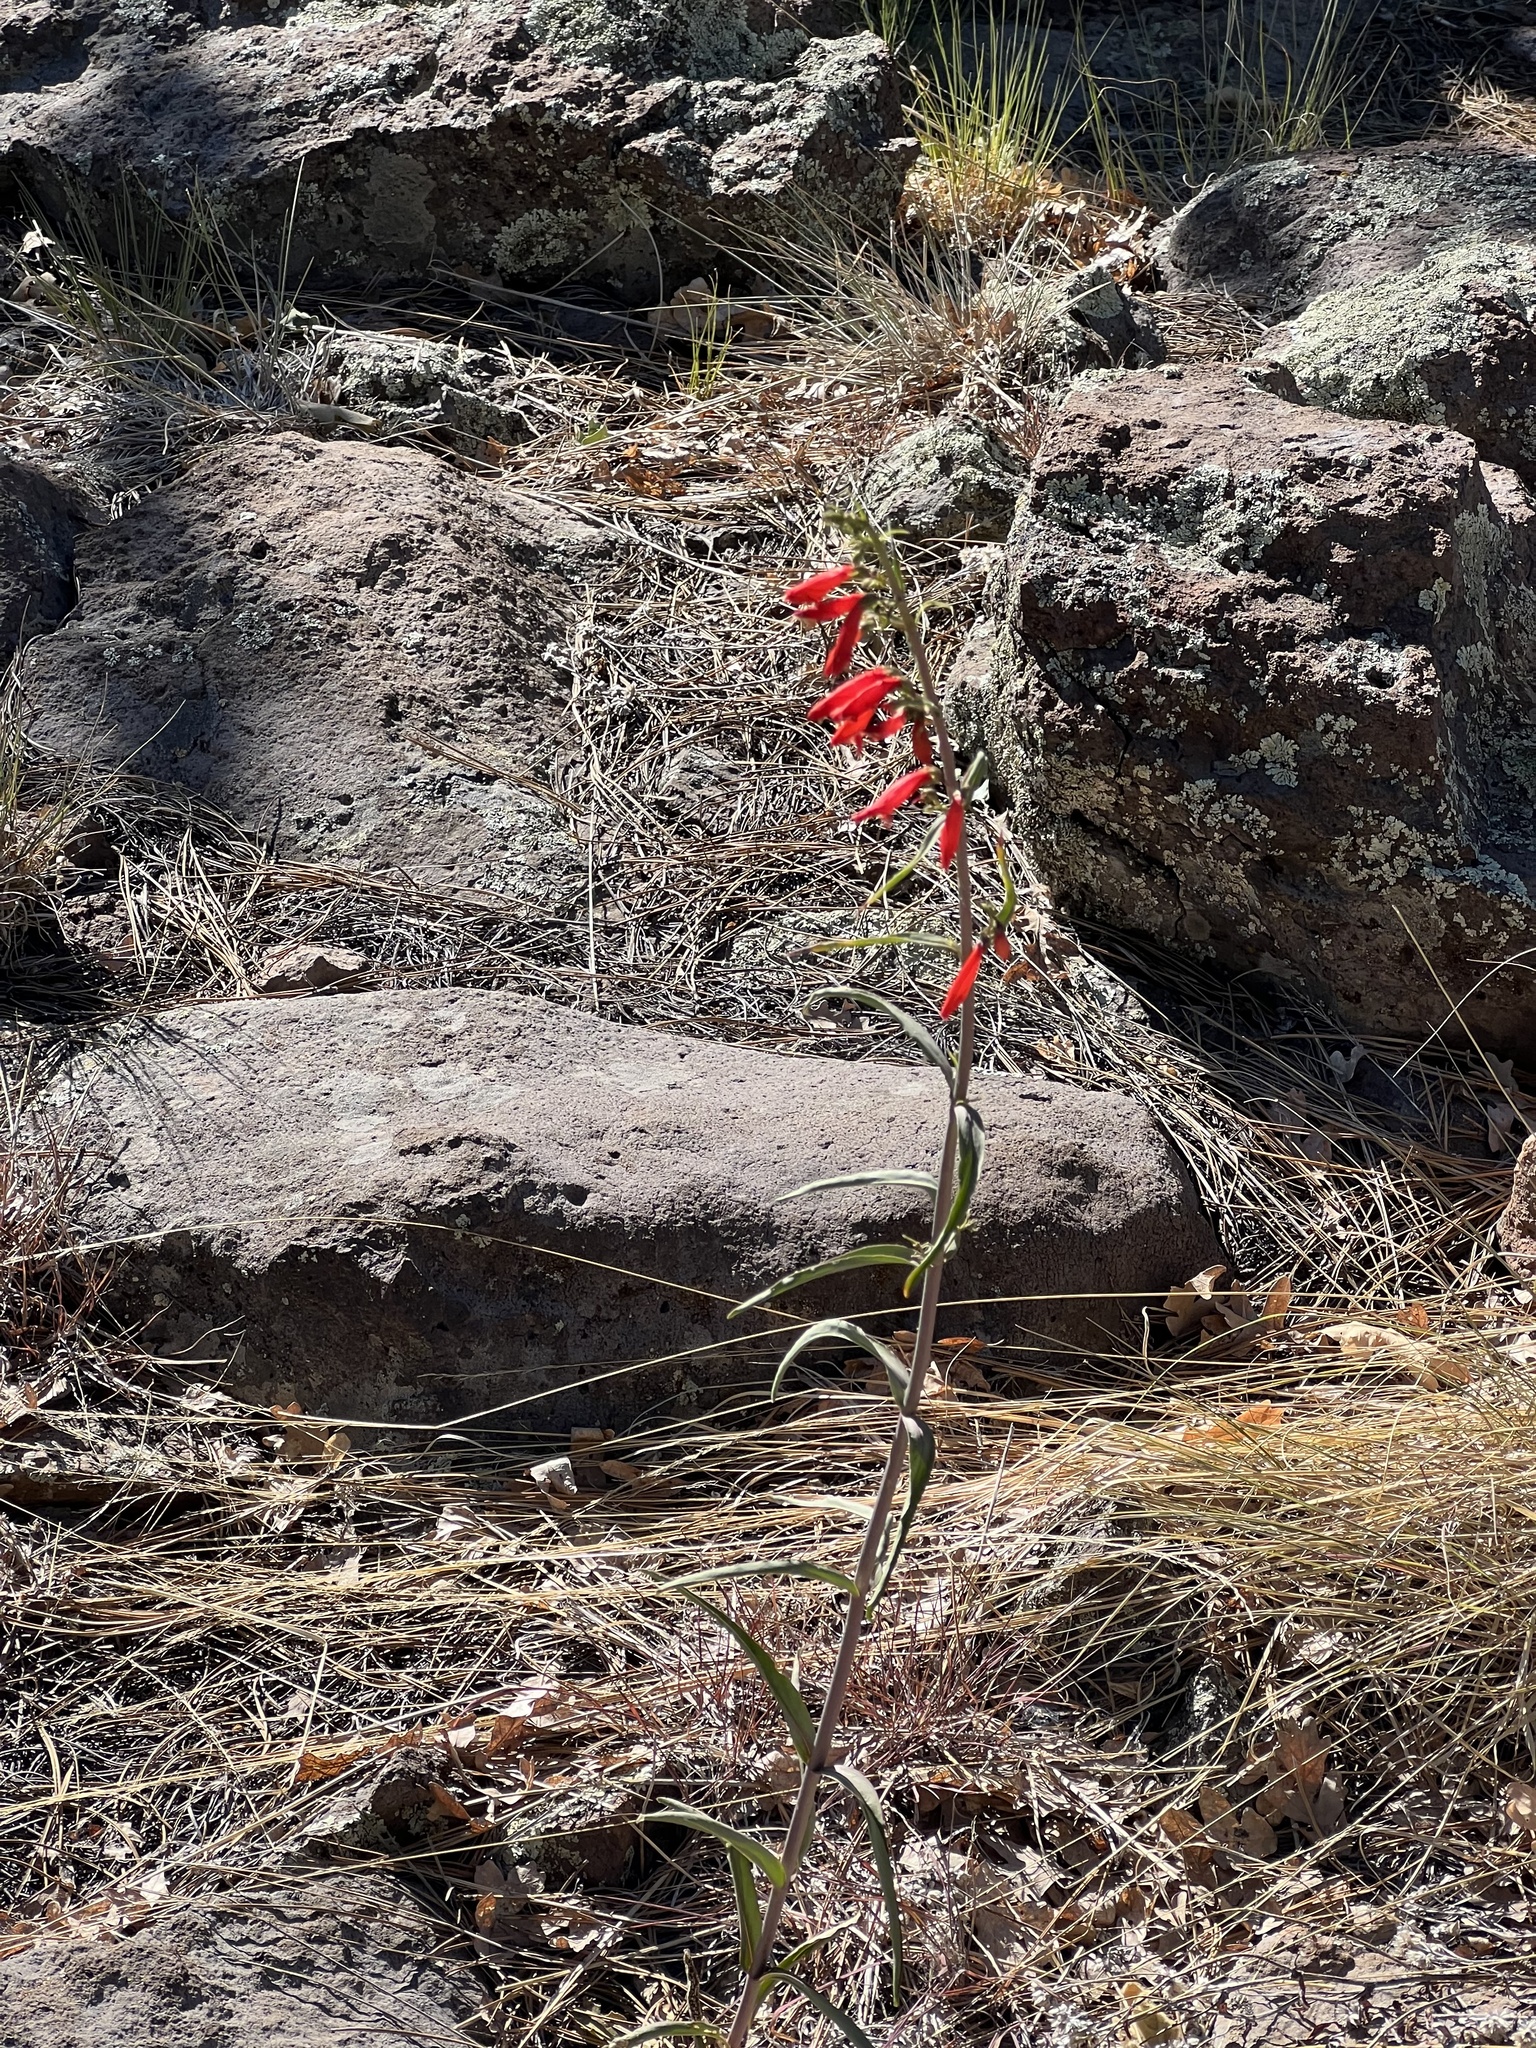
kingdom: Plantae
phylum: Tracheophyta
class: Magnoliopsida
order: Lamiales
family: Plantaginaceae
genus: Penstemon
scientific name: Penstemon barbatus
